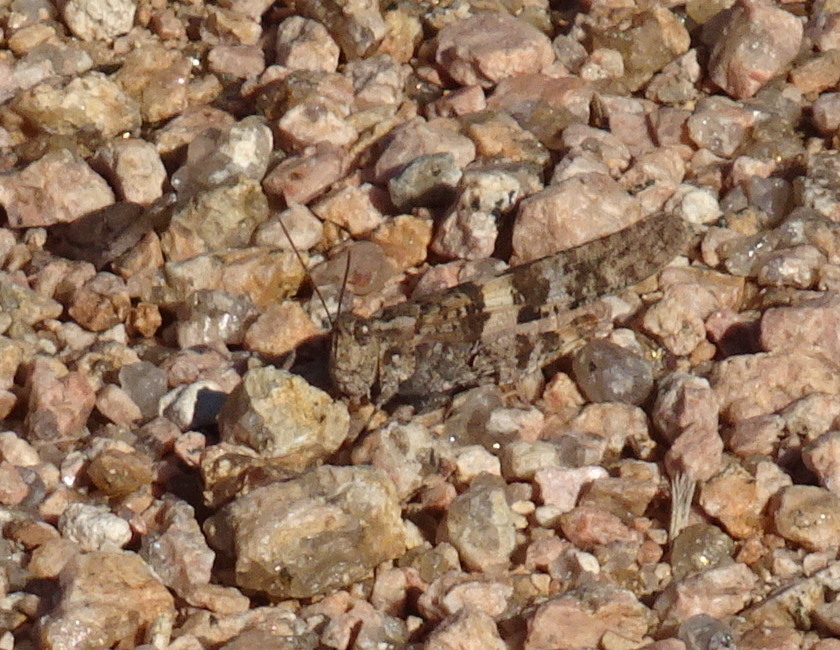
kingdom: Animalia
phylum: Arthropoda
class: Insecta
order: Orthoptera
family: Acrididae
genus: Trimerotropis
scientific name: Trimerotropis pallidipennis
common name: Pallid-winged grasshopper
